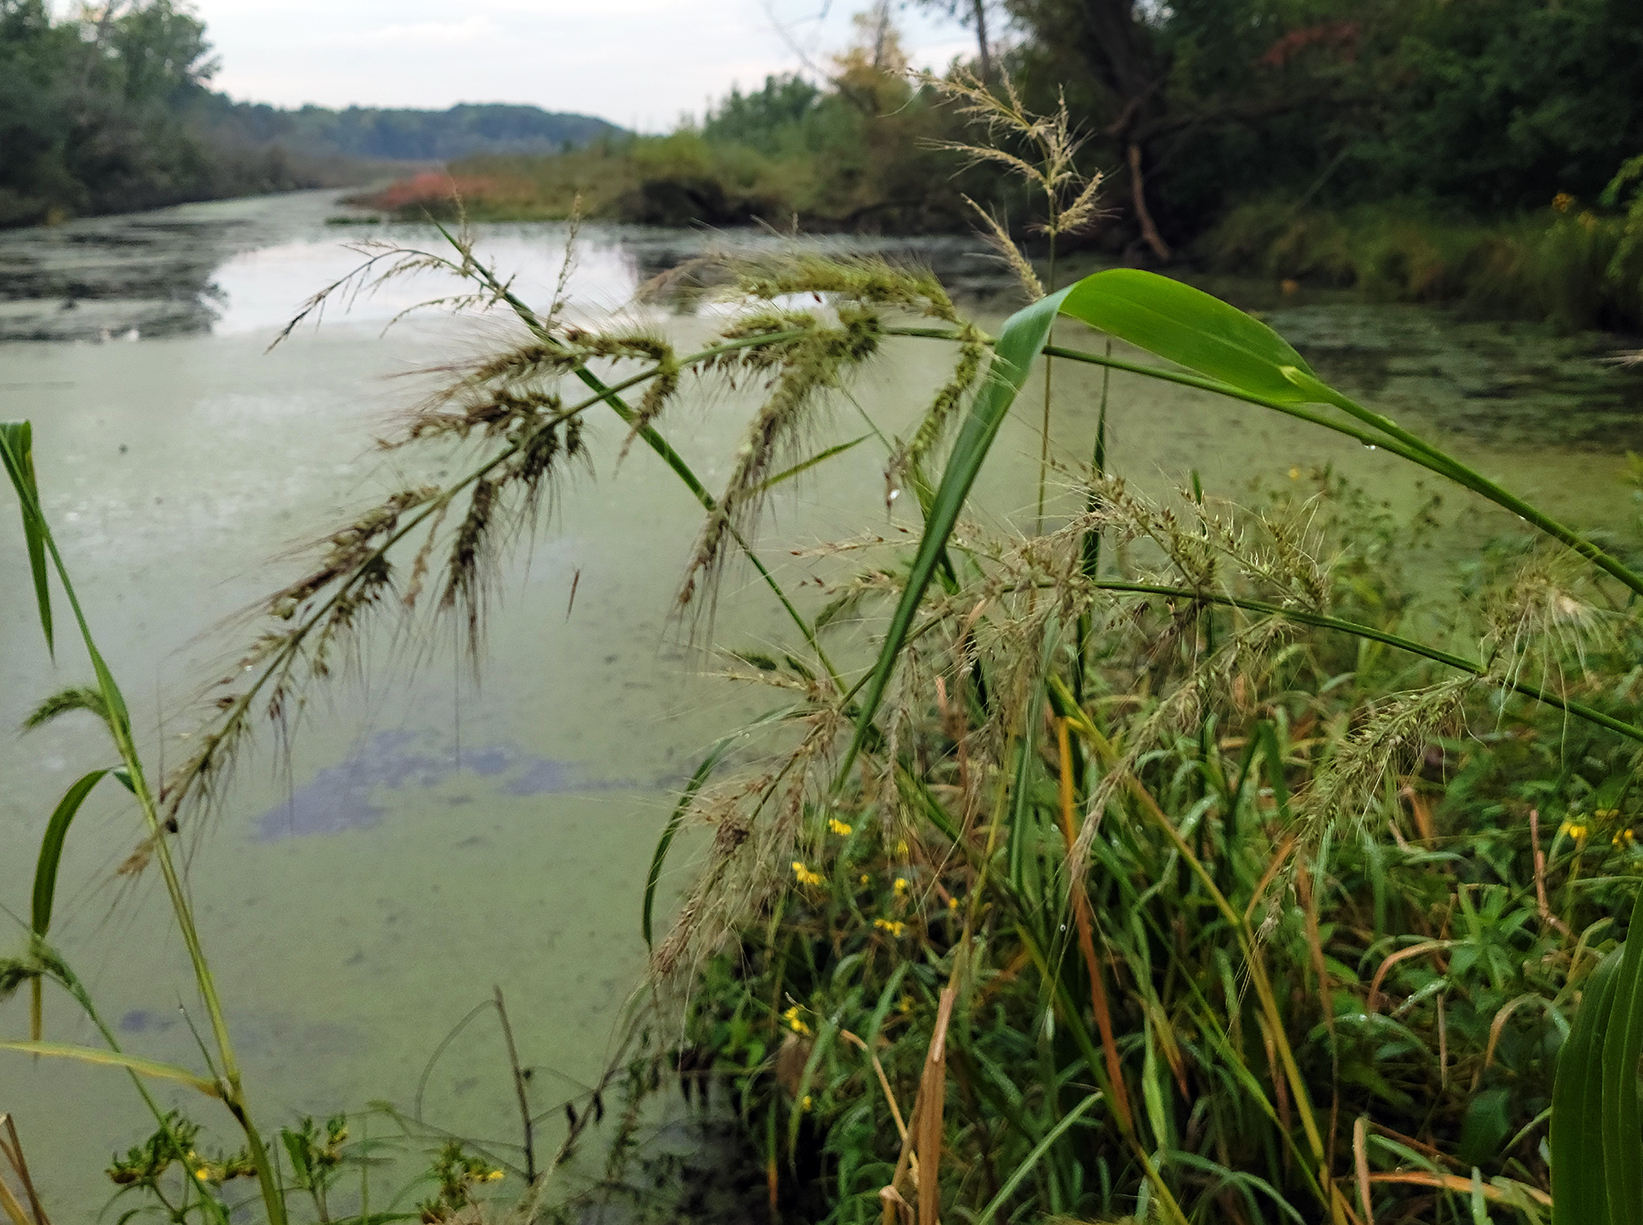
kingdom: Plantae
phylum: Tracheophyta
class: Liliopsida
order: Poales
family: Poaceae
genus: Echinochloa
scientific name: Echinochloa walteri
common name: Coast barnyard grass
